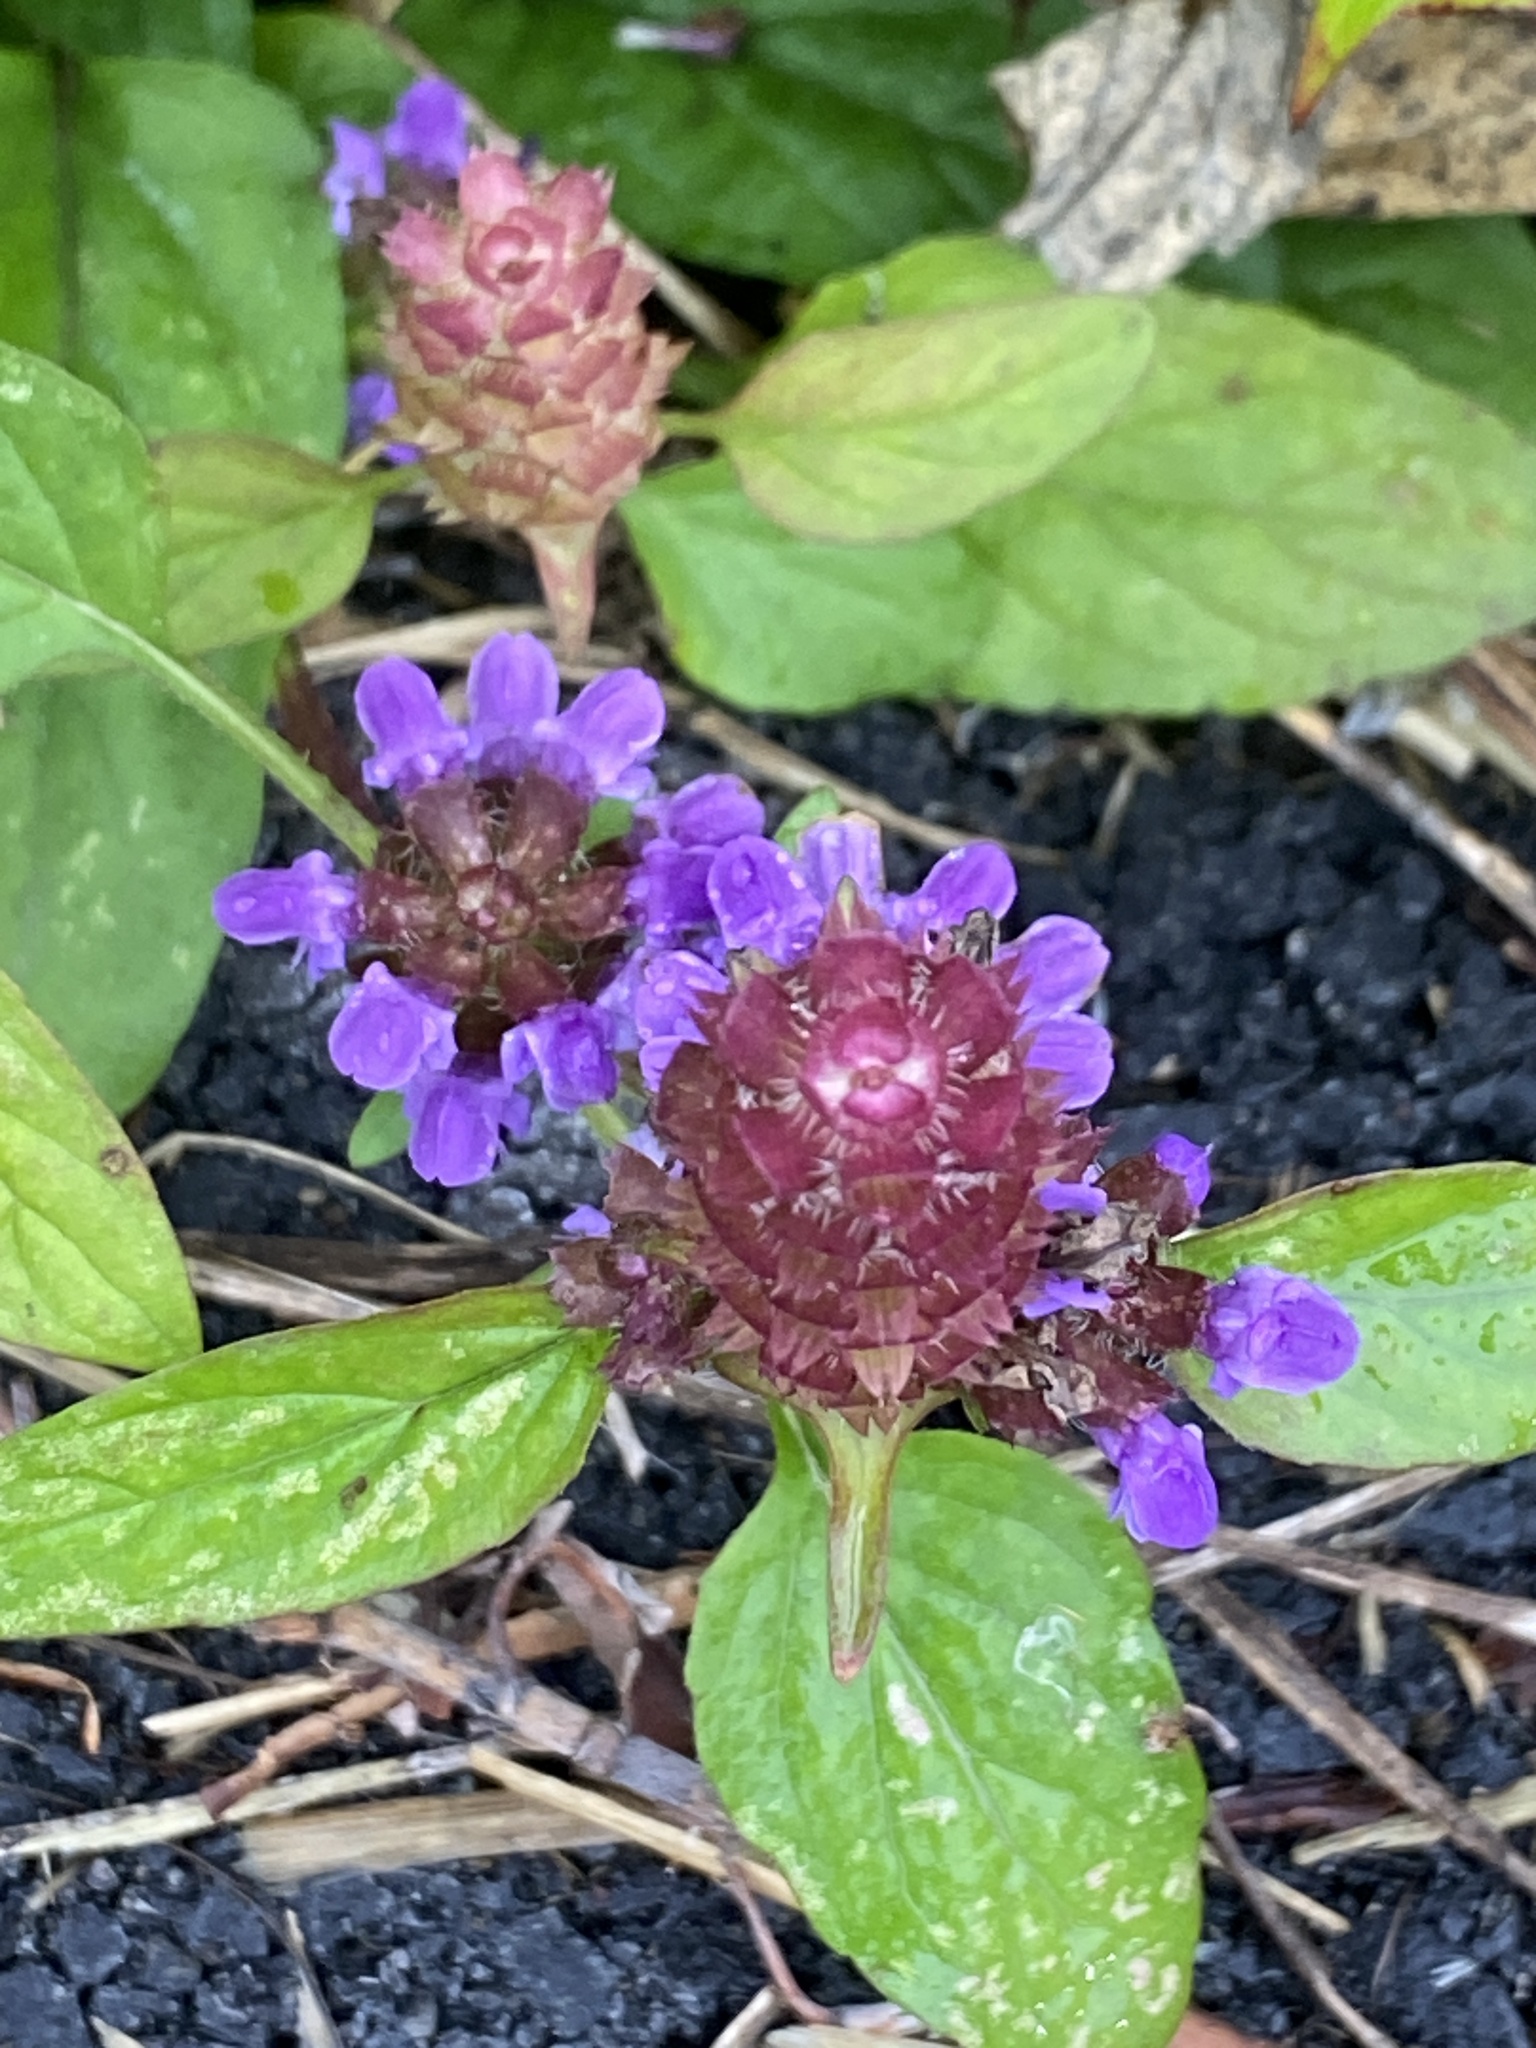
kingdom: Plantae
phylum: Tracheophyta
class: Magnoliopsida
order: Lamiales
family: Lamiaceae
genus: Prunella
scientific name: Prunella vulgaris
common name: Heal-all
